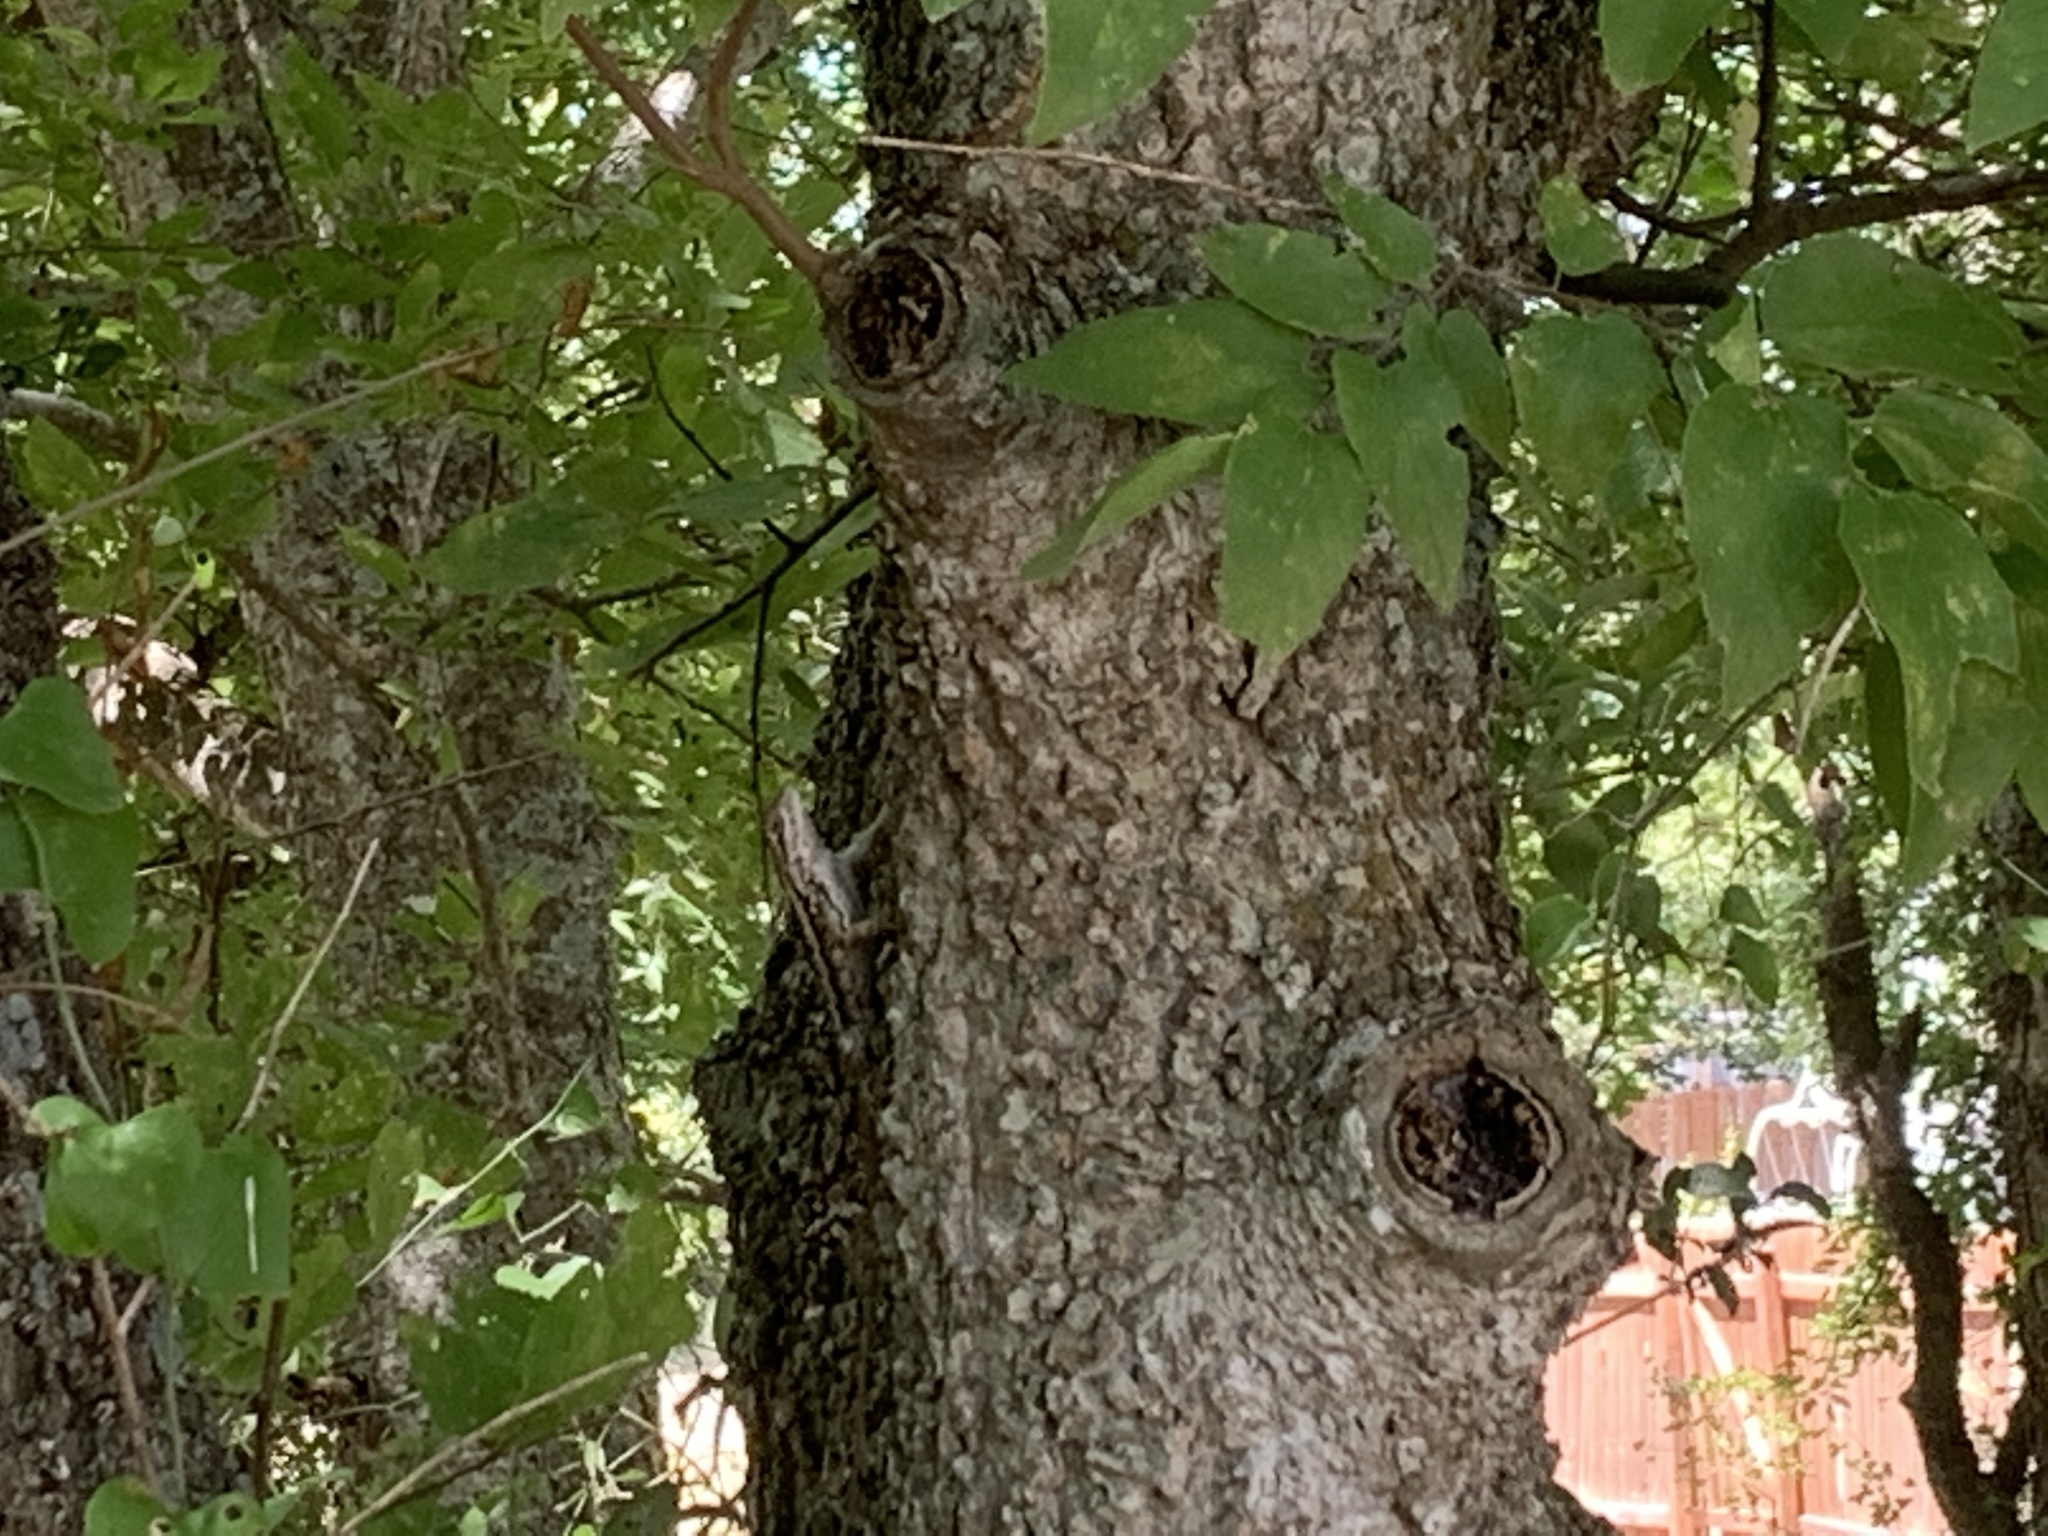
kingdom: Animalia
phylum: Chordata
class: Squamata
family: Phrynosomatidae
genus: Sceloporus
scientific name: Sceloporus olivaceus
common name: Texas spiny lizard
